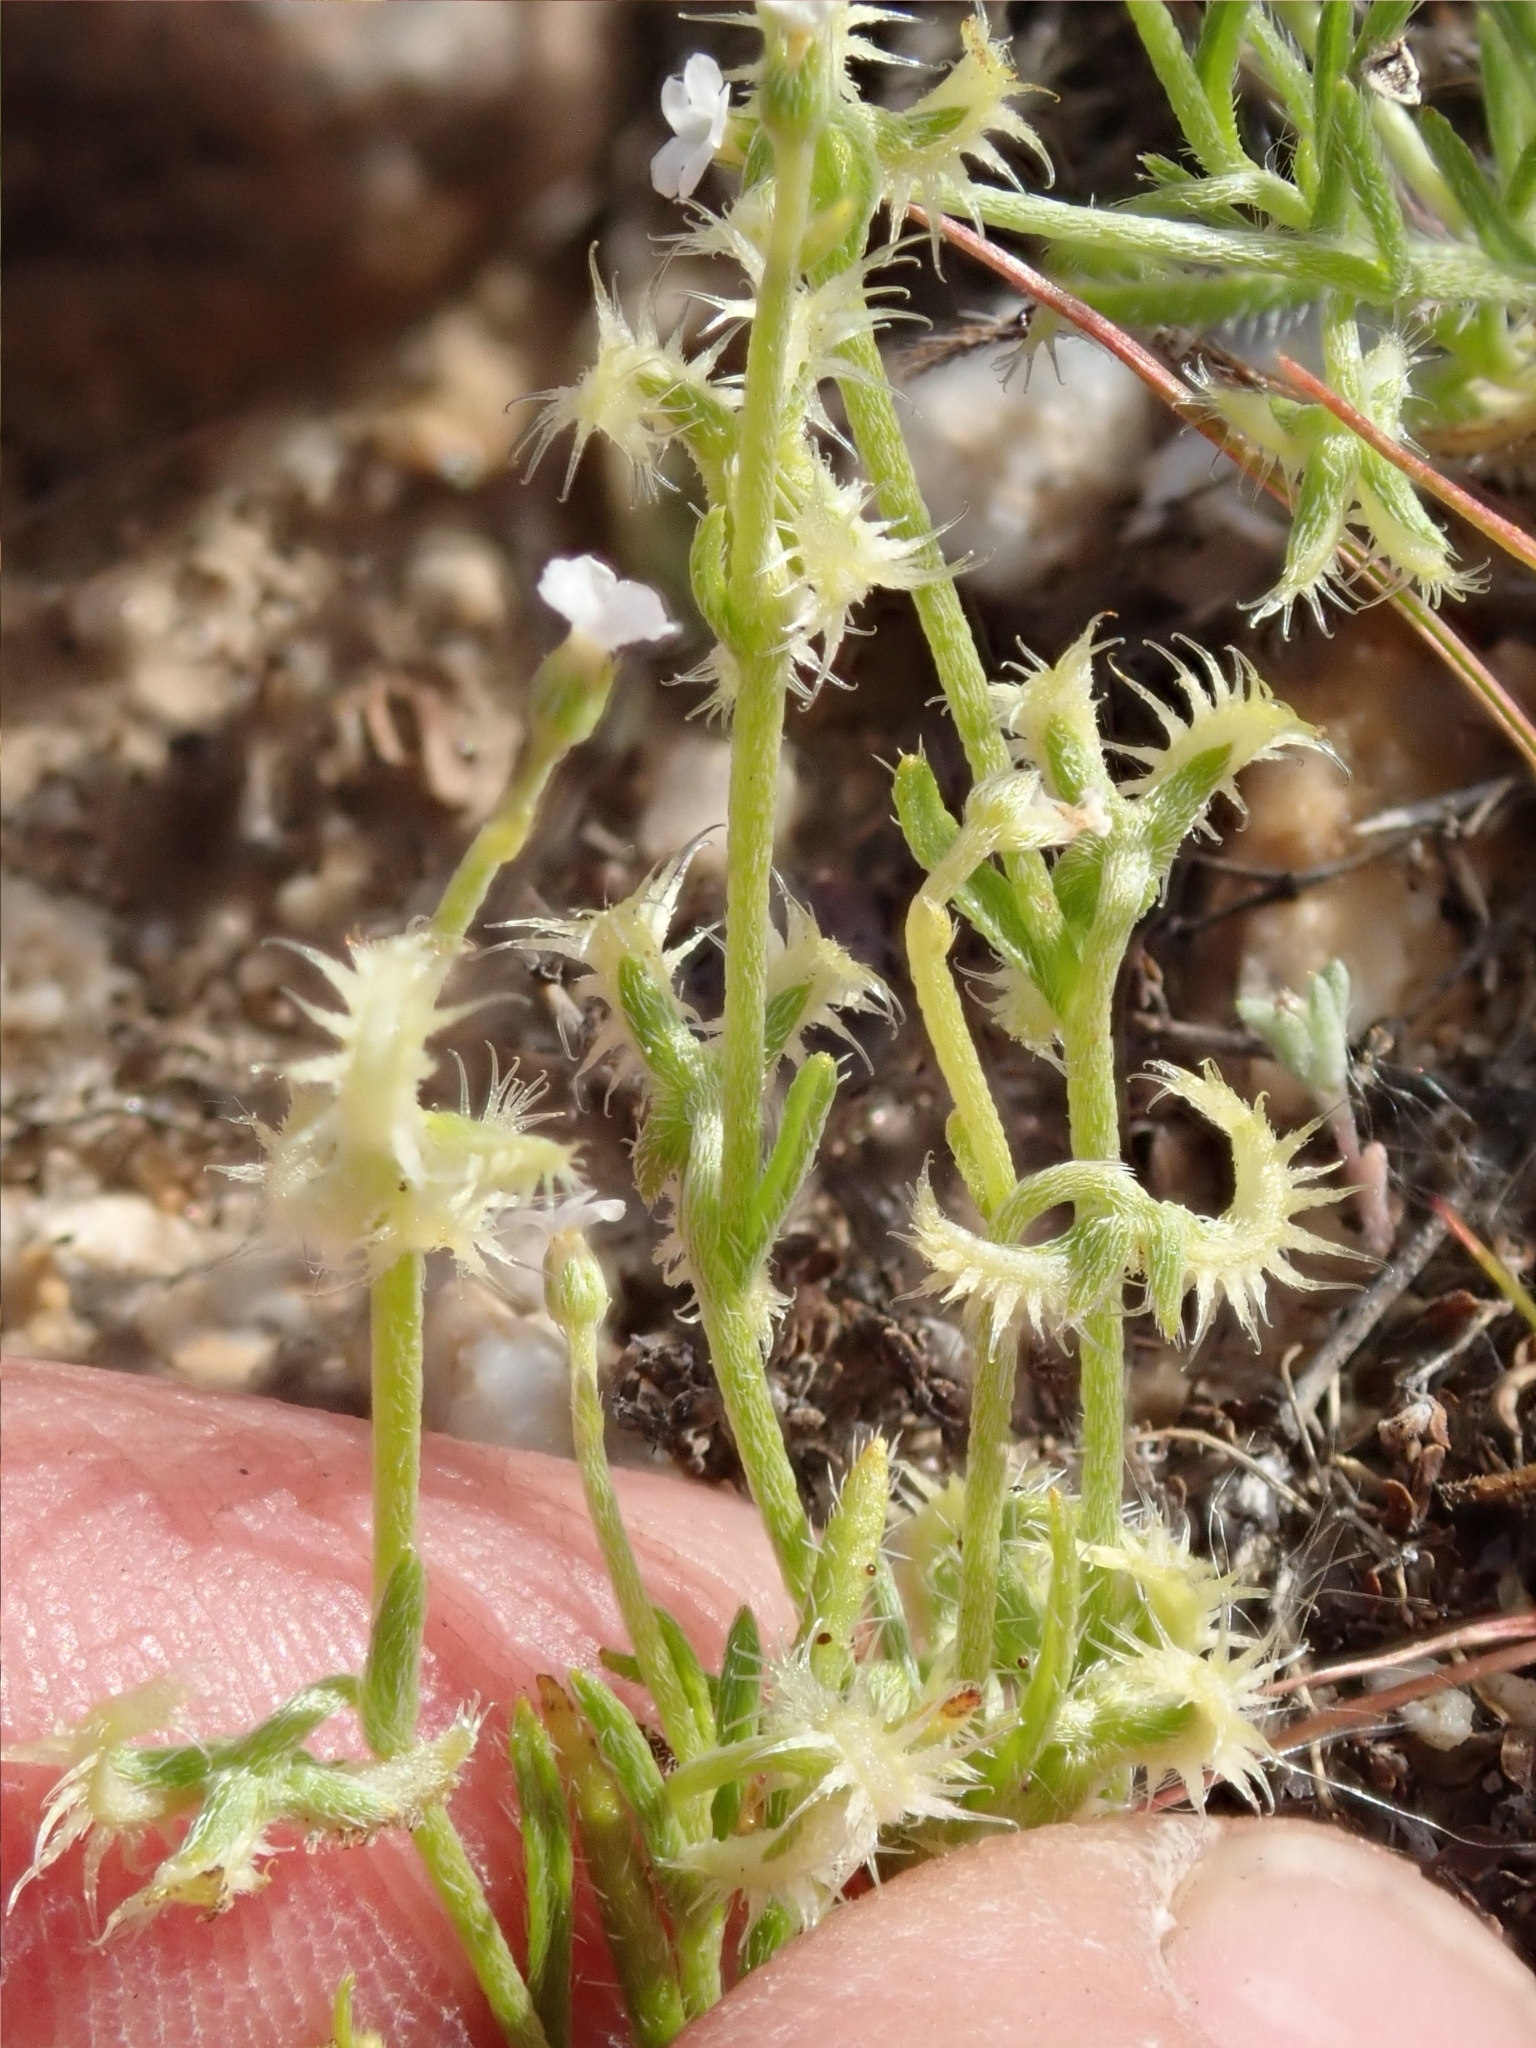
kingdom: Plantae
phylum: Tracheophyta
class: Magnoliopsida
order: Boraginales
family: Boraginaceae
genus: Pectocarya
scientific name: Pectocarya recurvata
